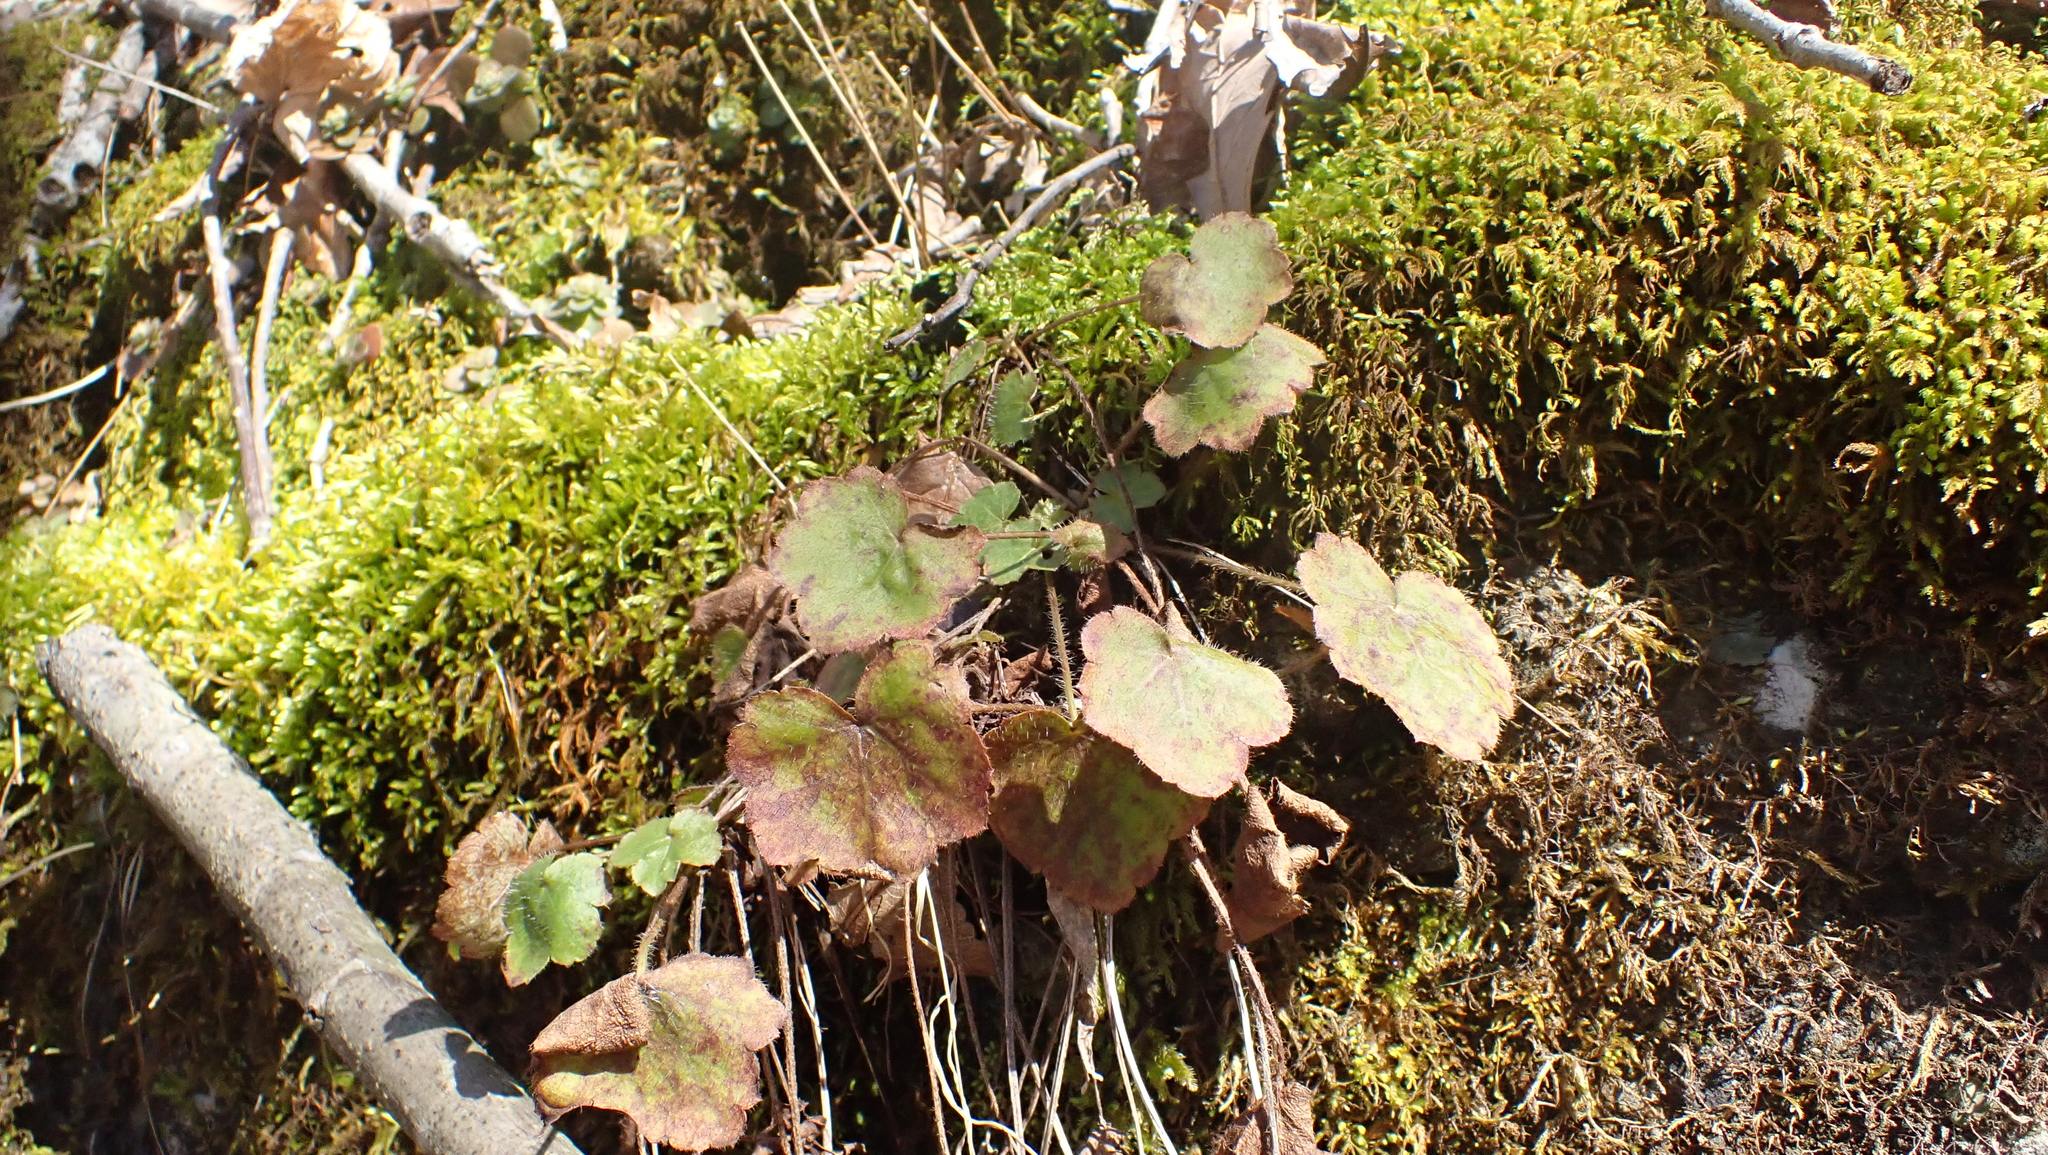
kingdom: Plantae
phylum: Tracheophyta
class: Magnoliopsida
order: Saxifragales
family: Saxifragaceae
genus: Heuchera
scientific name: Heuchera americana
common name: Alumroot
